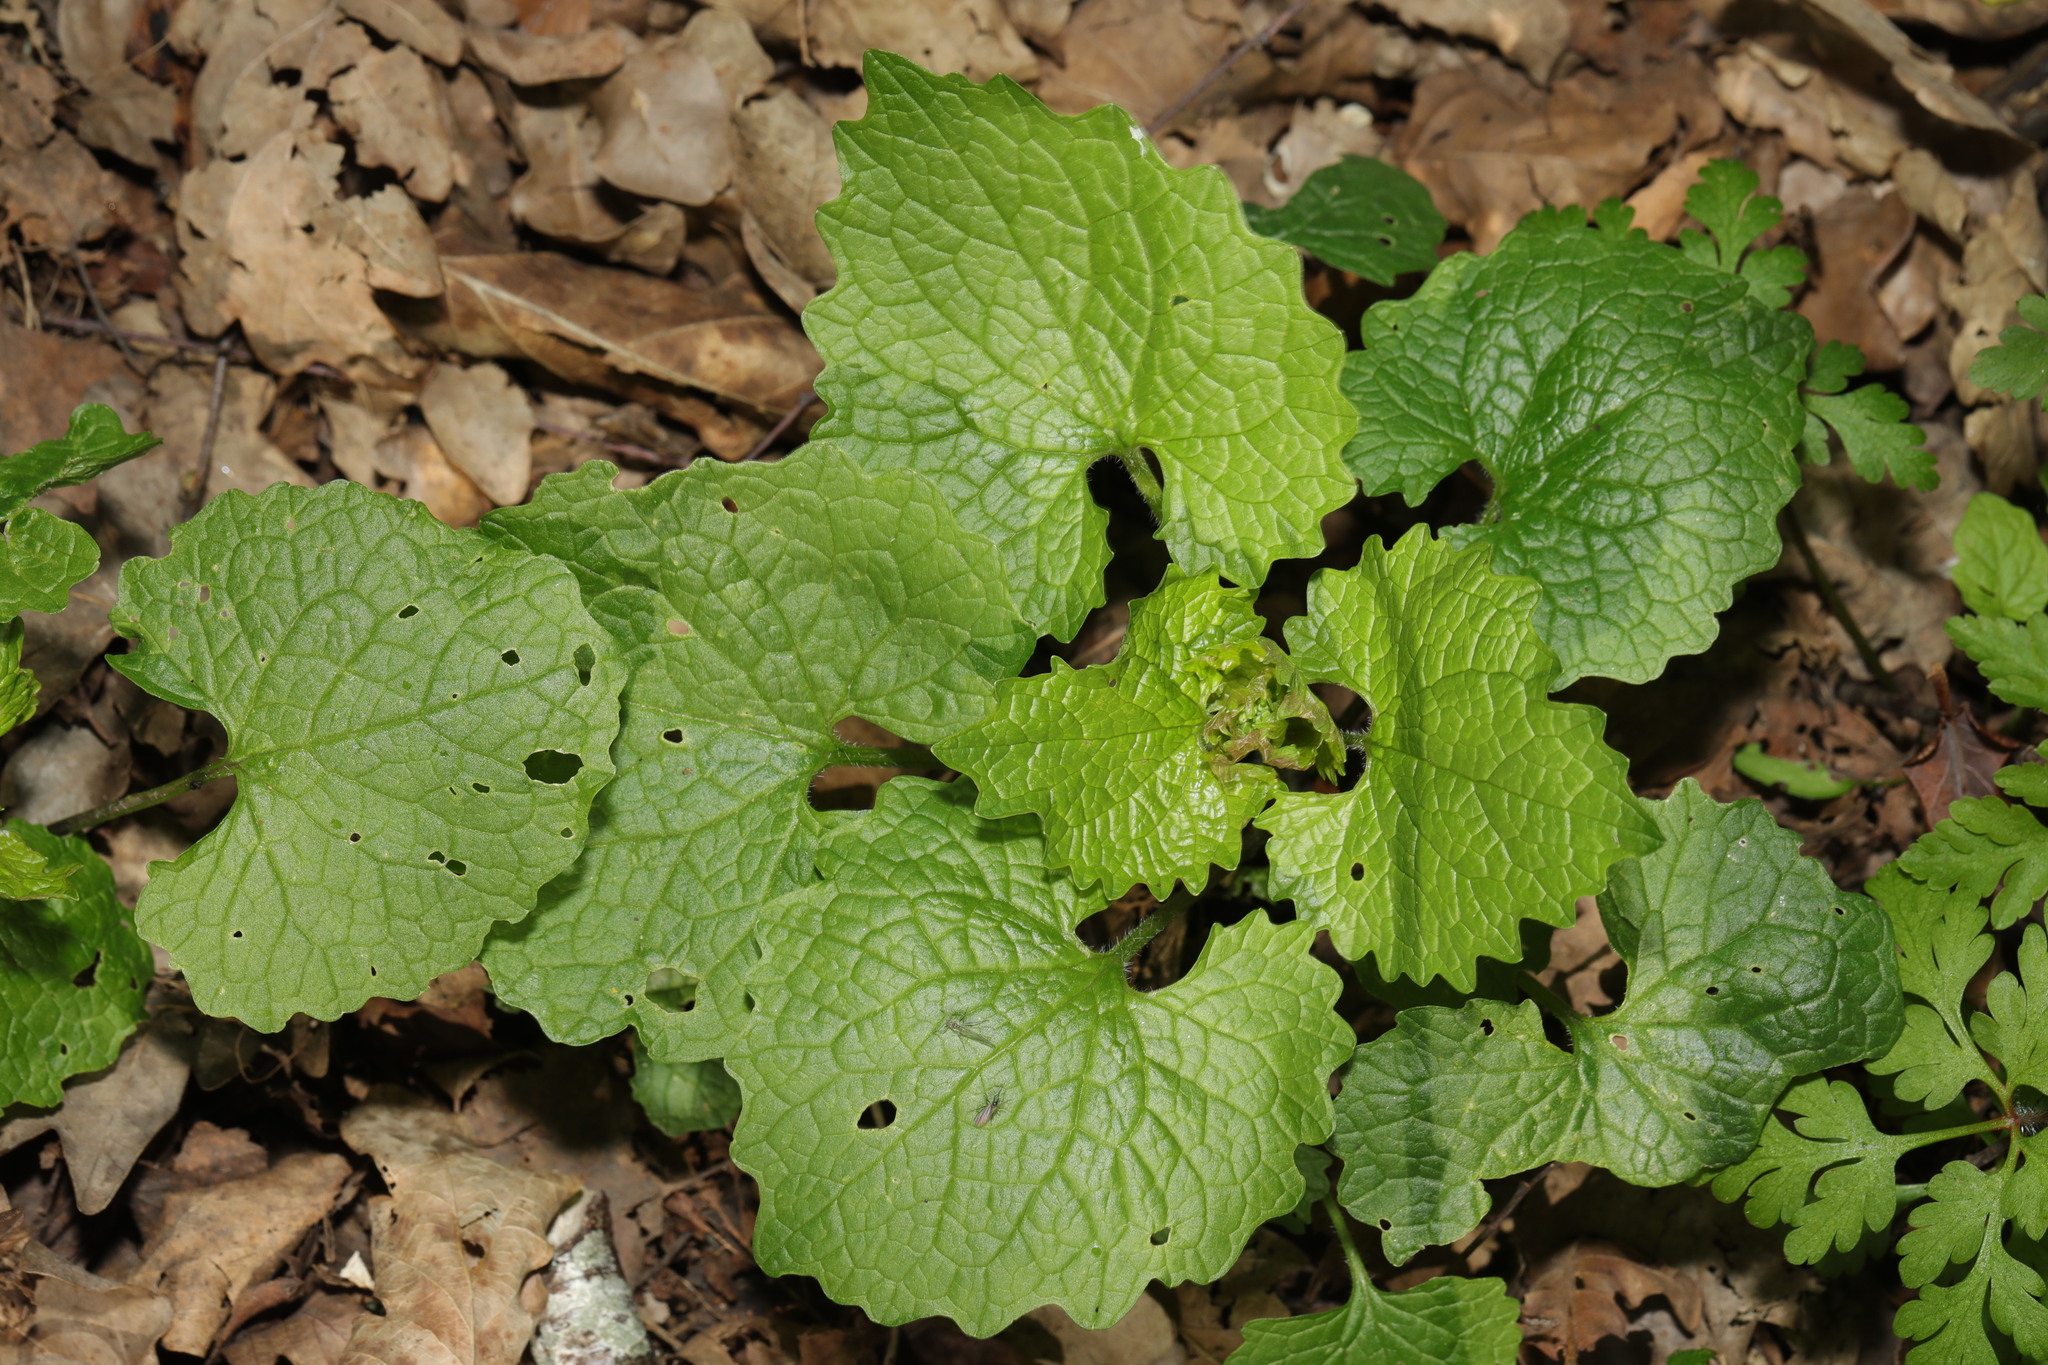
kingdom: Plantae
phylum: Tracheophyta
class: Magnoliopsida
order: Brassicales
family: Brassicaceae
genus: Alliaria
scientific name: Alliaria petiolata
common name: Garlic mustard
